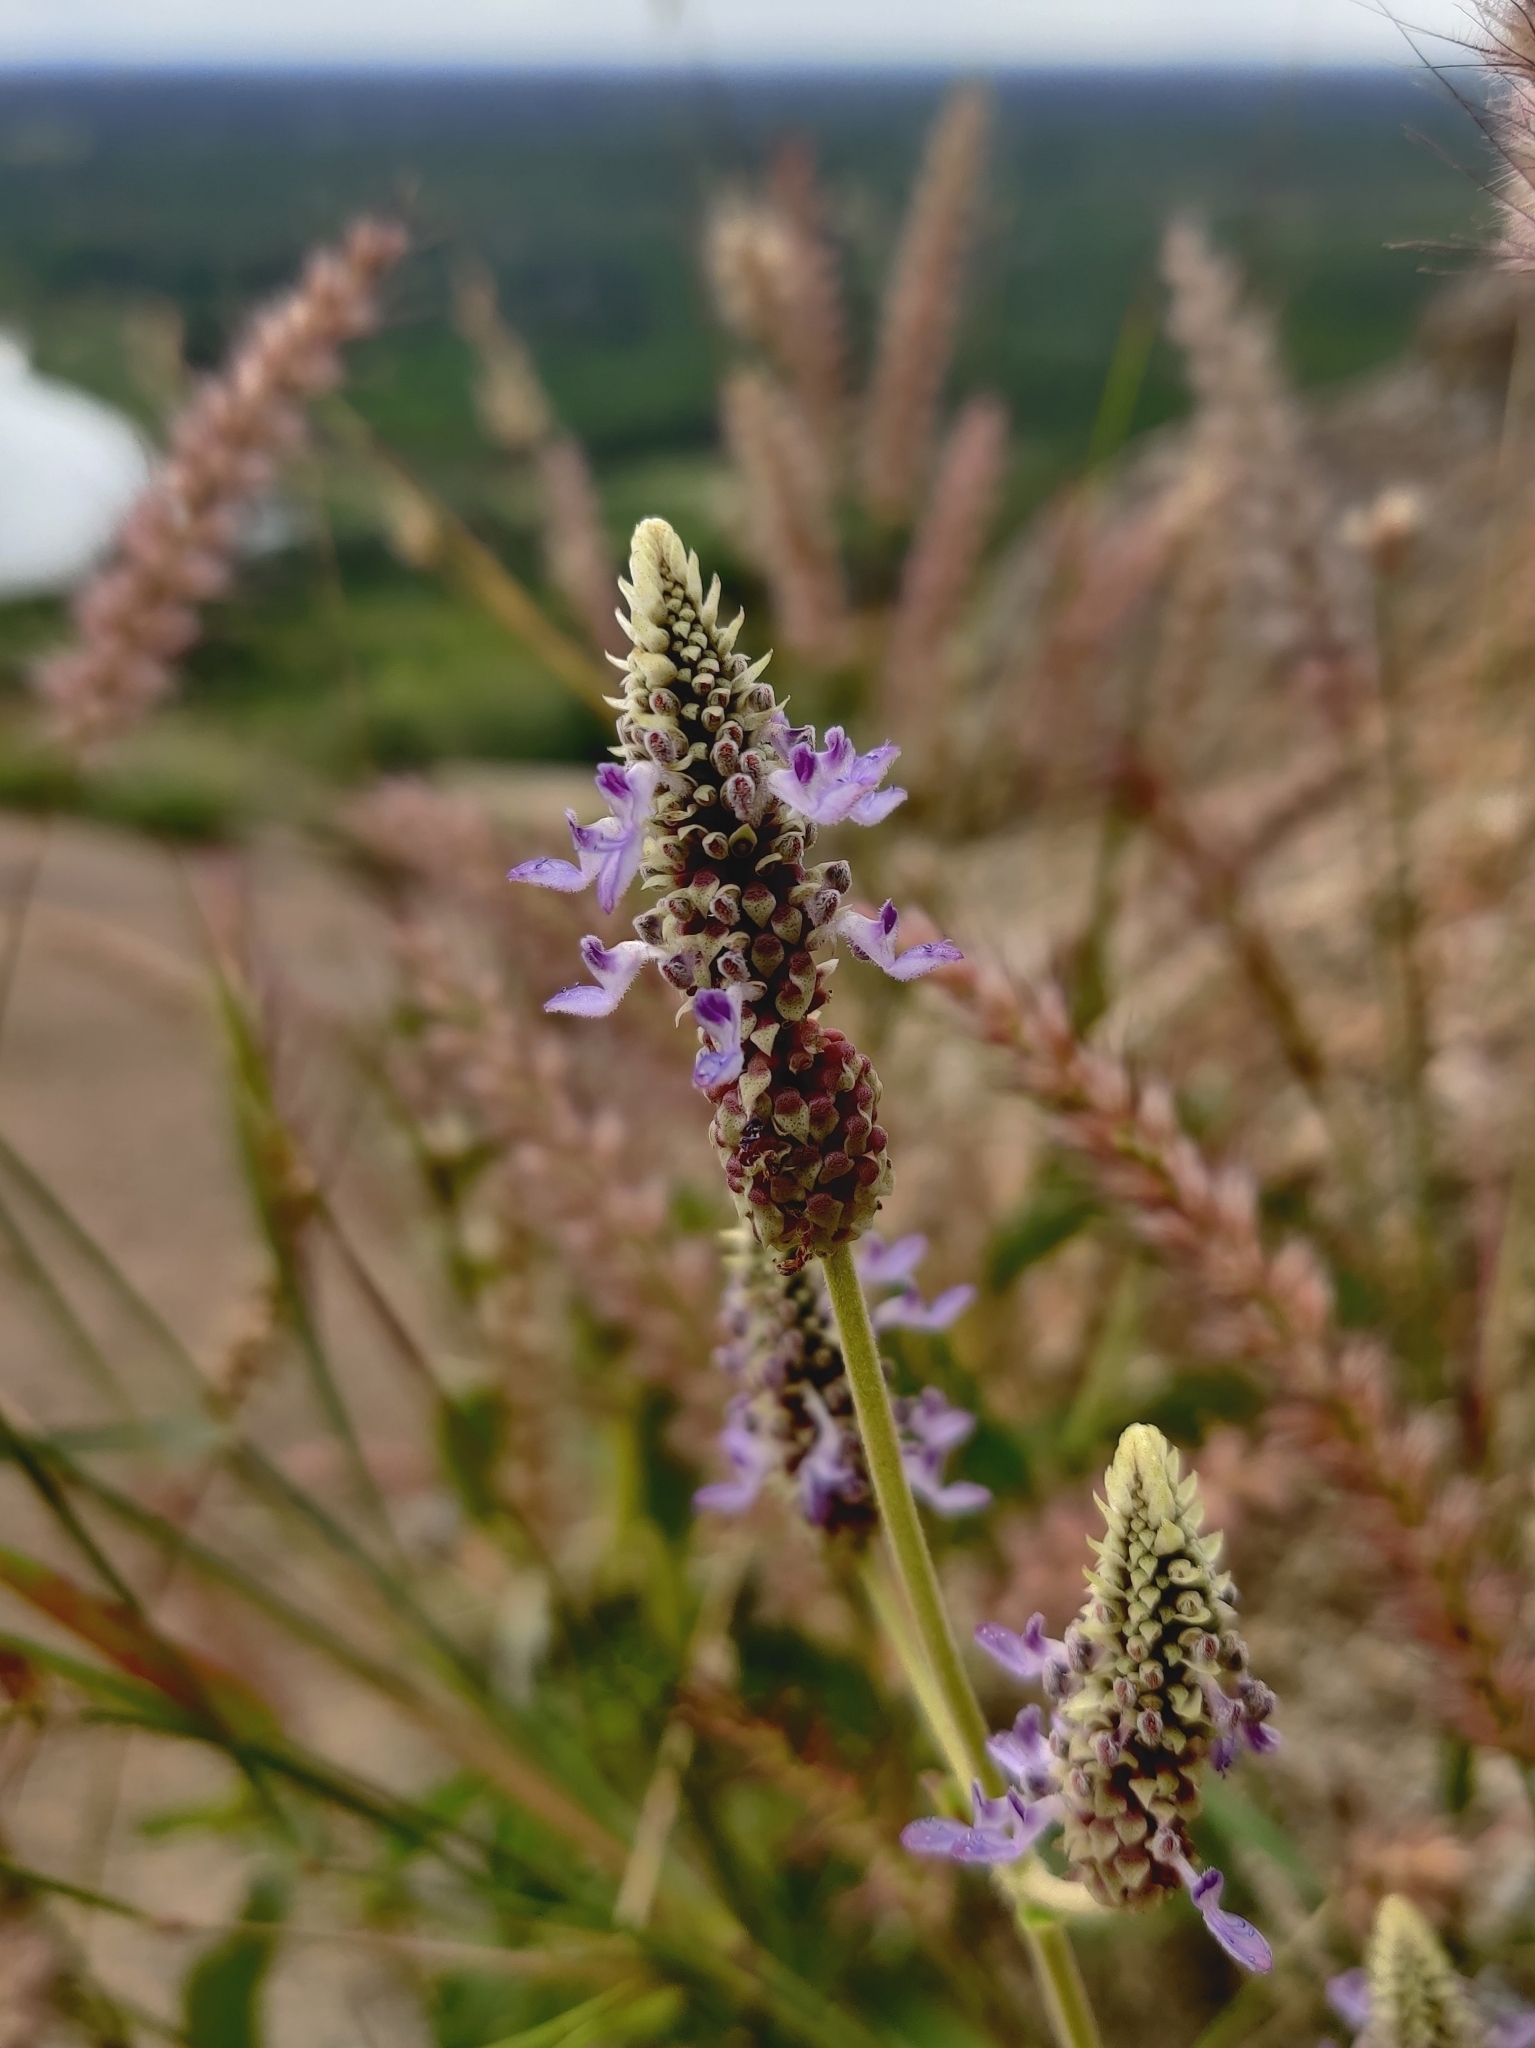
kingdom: Plantae
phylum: Tracheophyta
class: Magnoliopsida
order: Lamiales
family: Lamiaceae
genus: Coleus
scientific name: Coleus strobilifer
